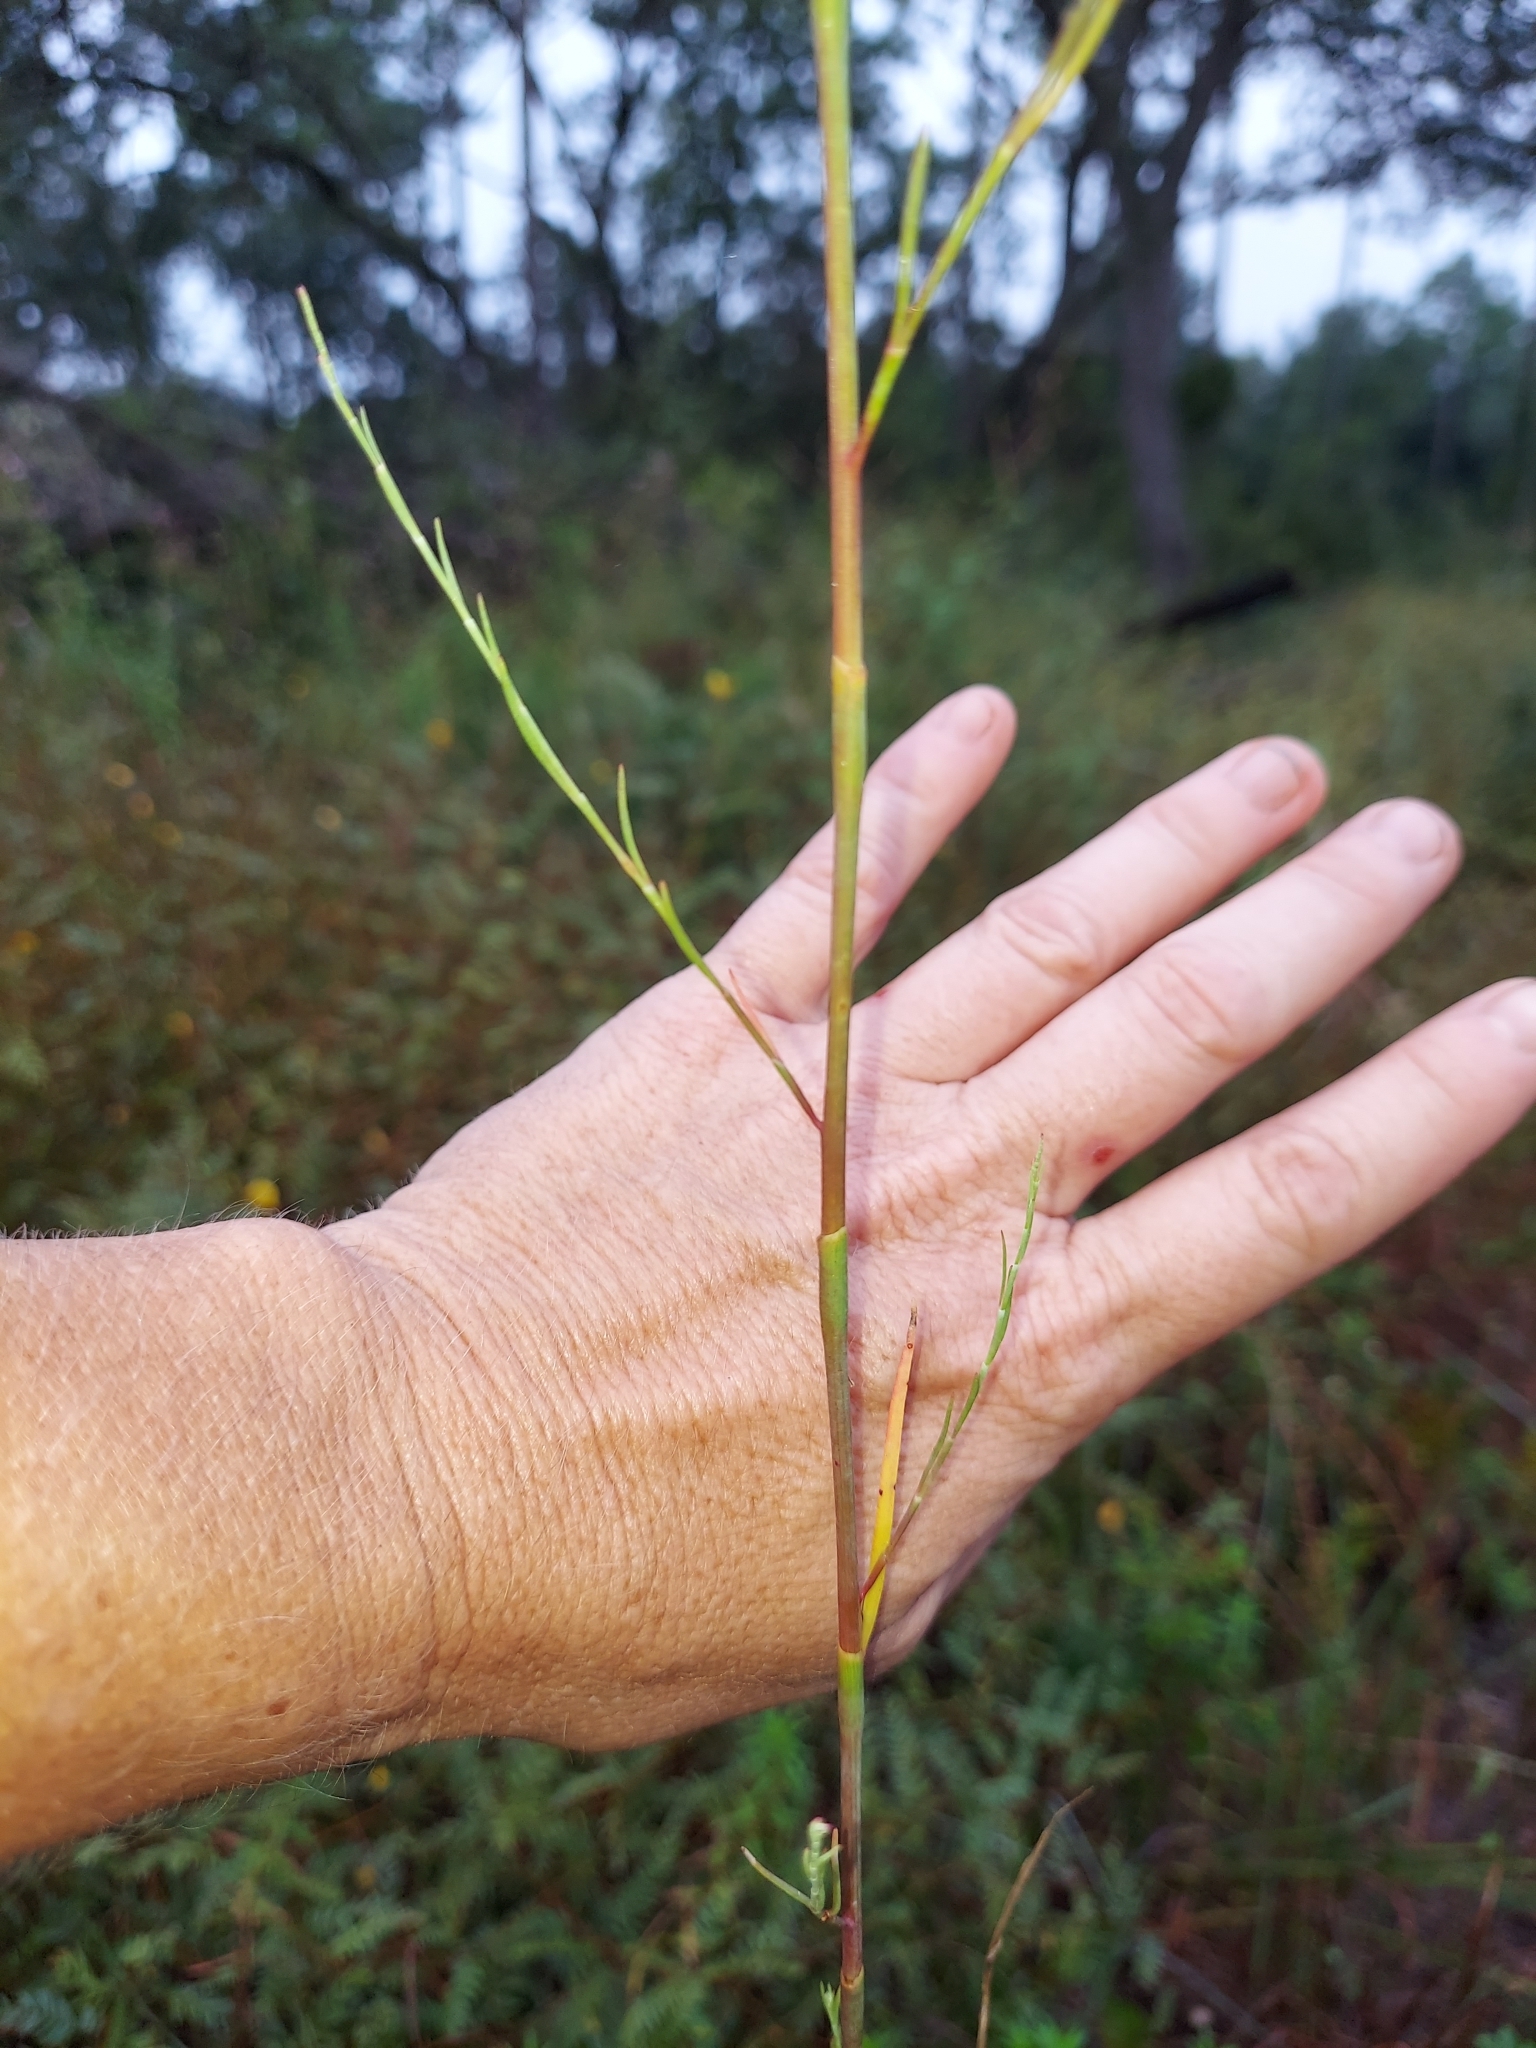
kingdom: Plantae
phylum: Tracheophyta
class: Magnoliopsida
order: Caryophyllales
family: Polygonaceae
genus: Polygonella
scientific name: Polygonella gracilis
